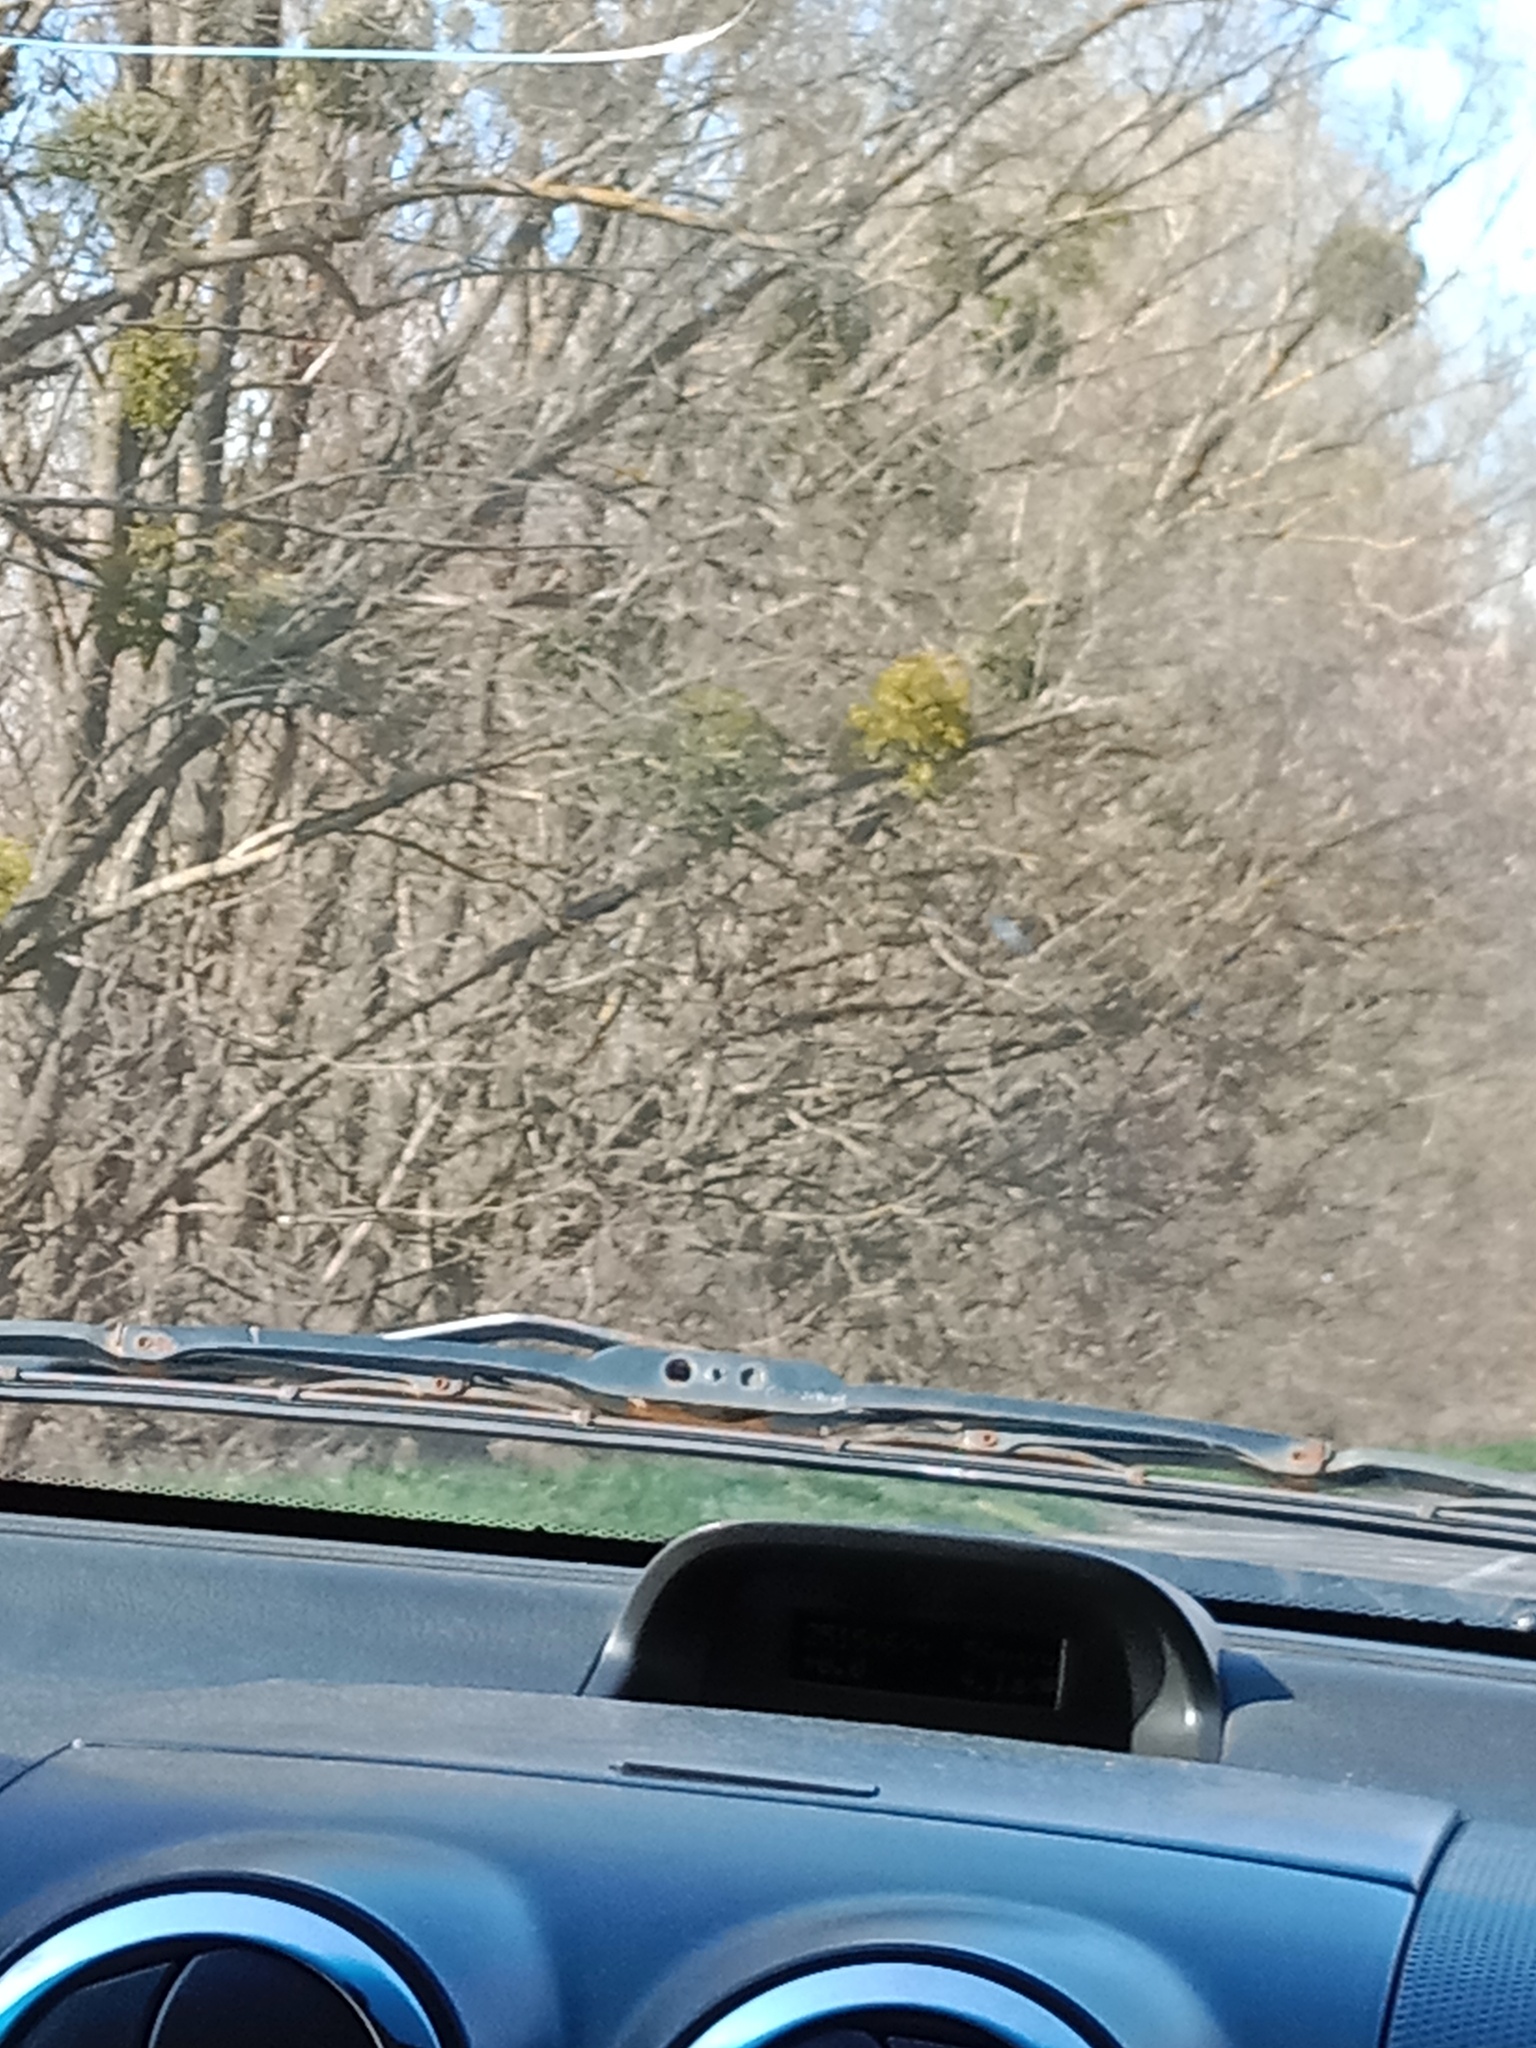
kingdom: Plantae
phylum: Tracheophyta
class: Magnoliopsida
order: Santalales
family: Viscaceae
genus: Viscum
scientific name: Viscum album
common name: Mistletoe
